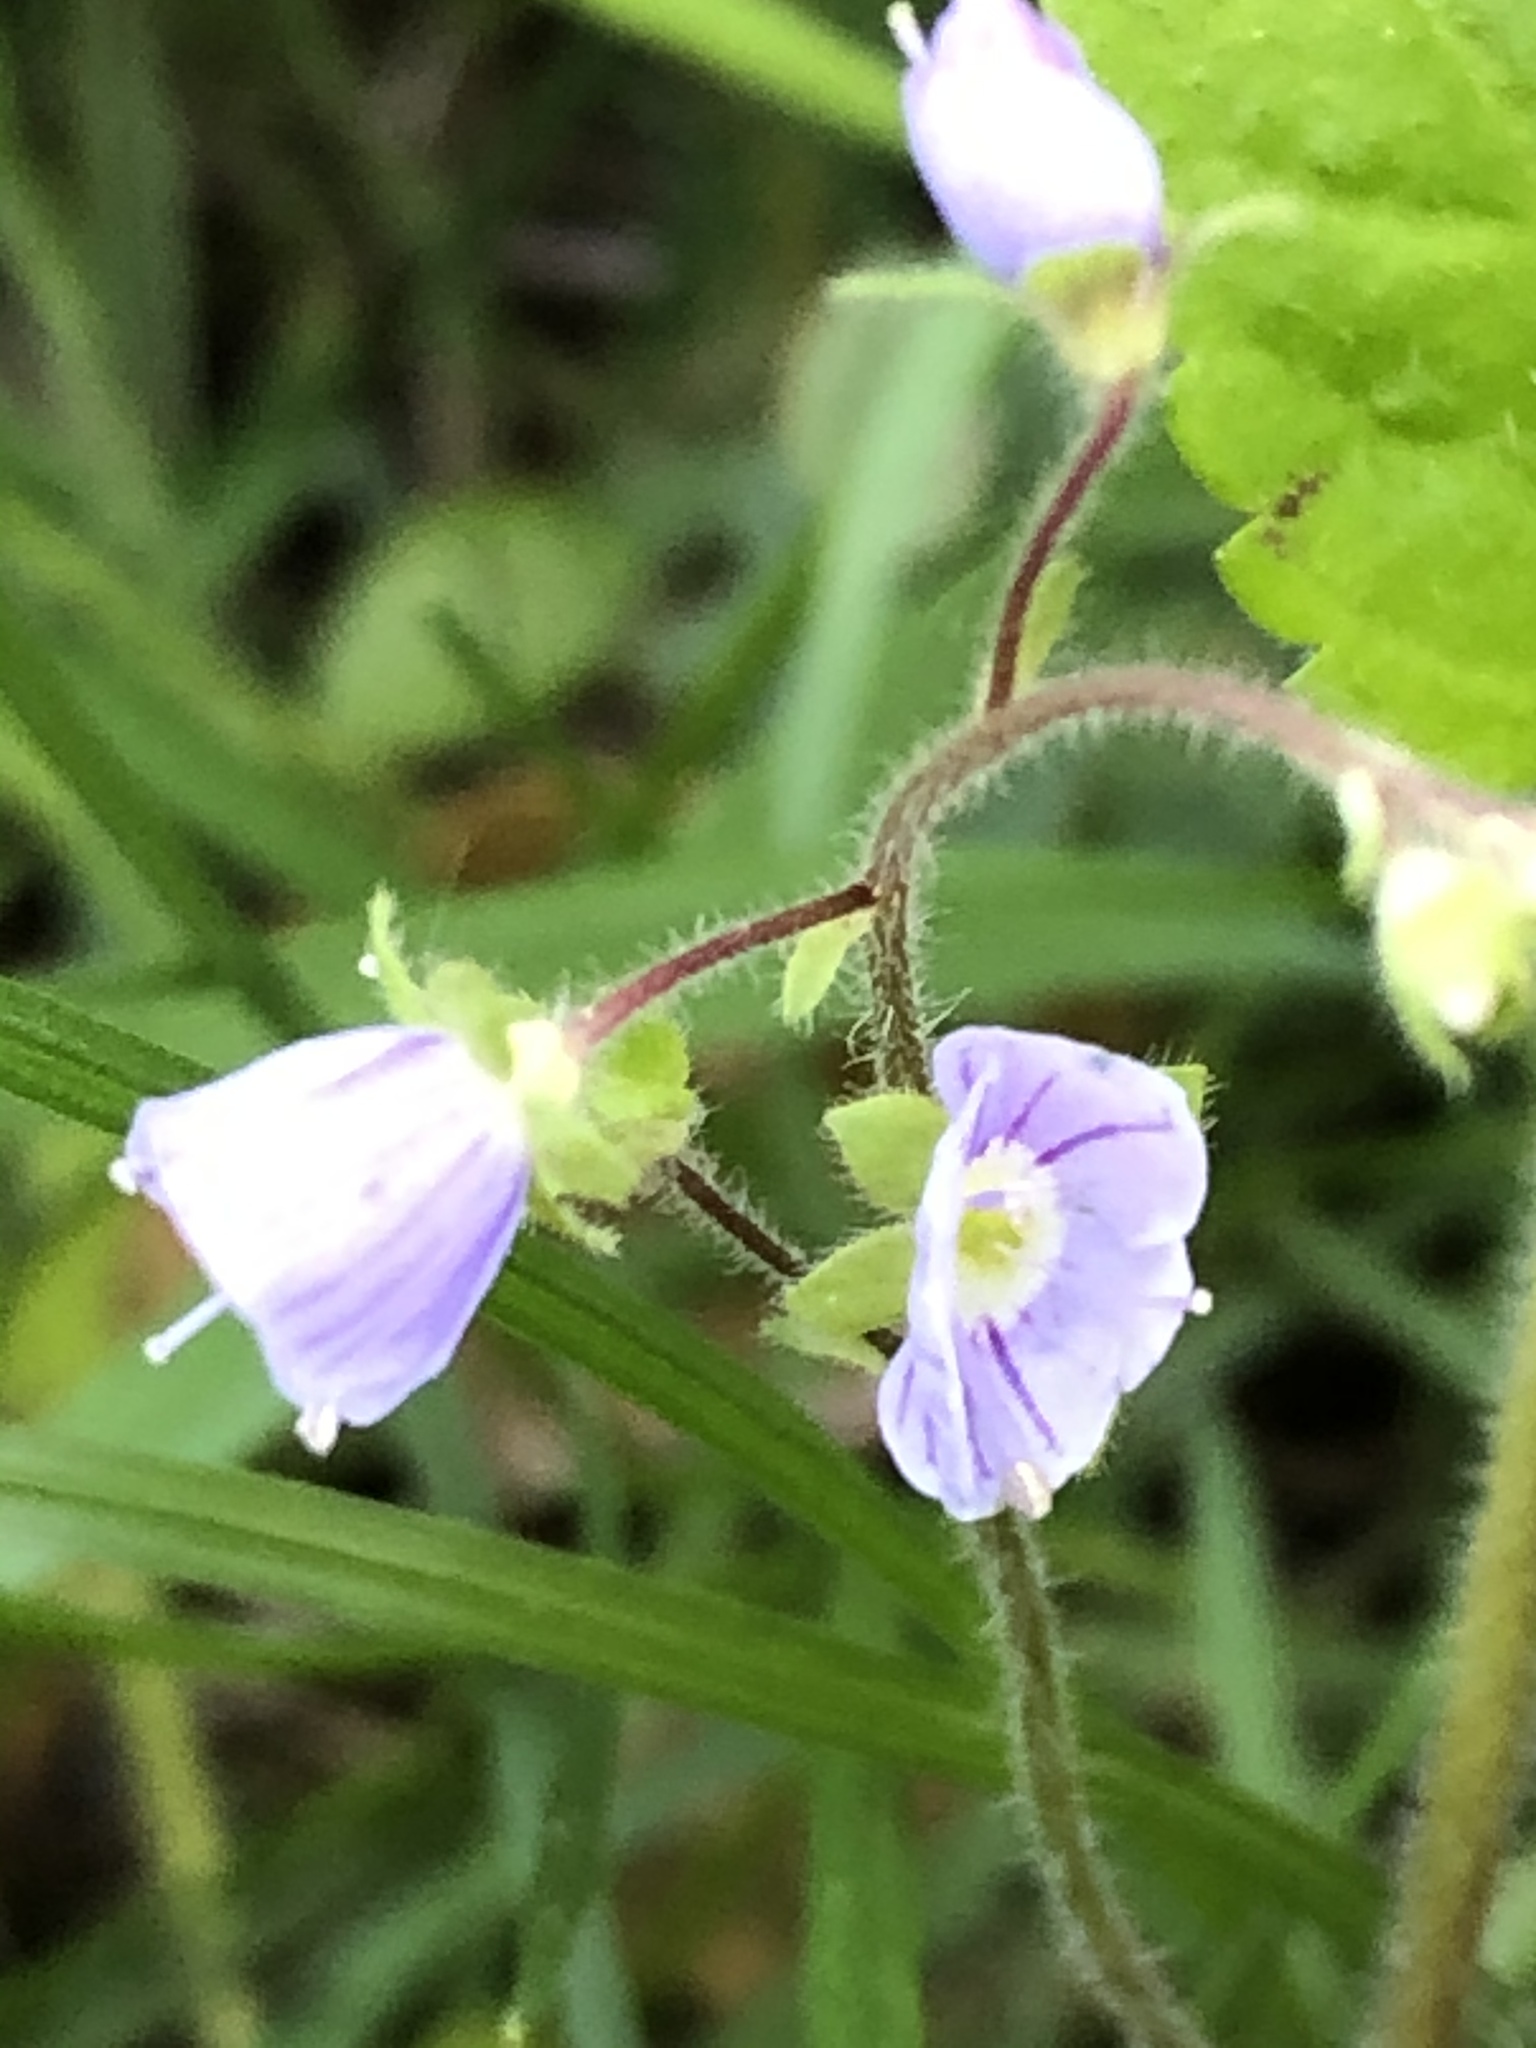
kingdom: Plantae
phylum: Tracheophyta
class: Magnoliopsida
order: Lamiales
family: Plantaginaceae
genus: Veronica
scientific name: Veronica montana
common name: Wood speedwell
